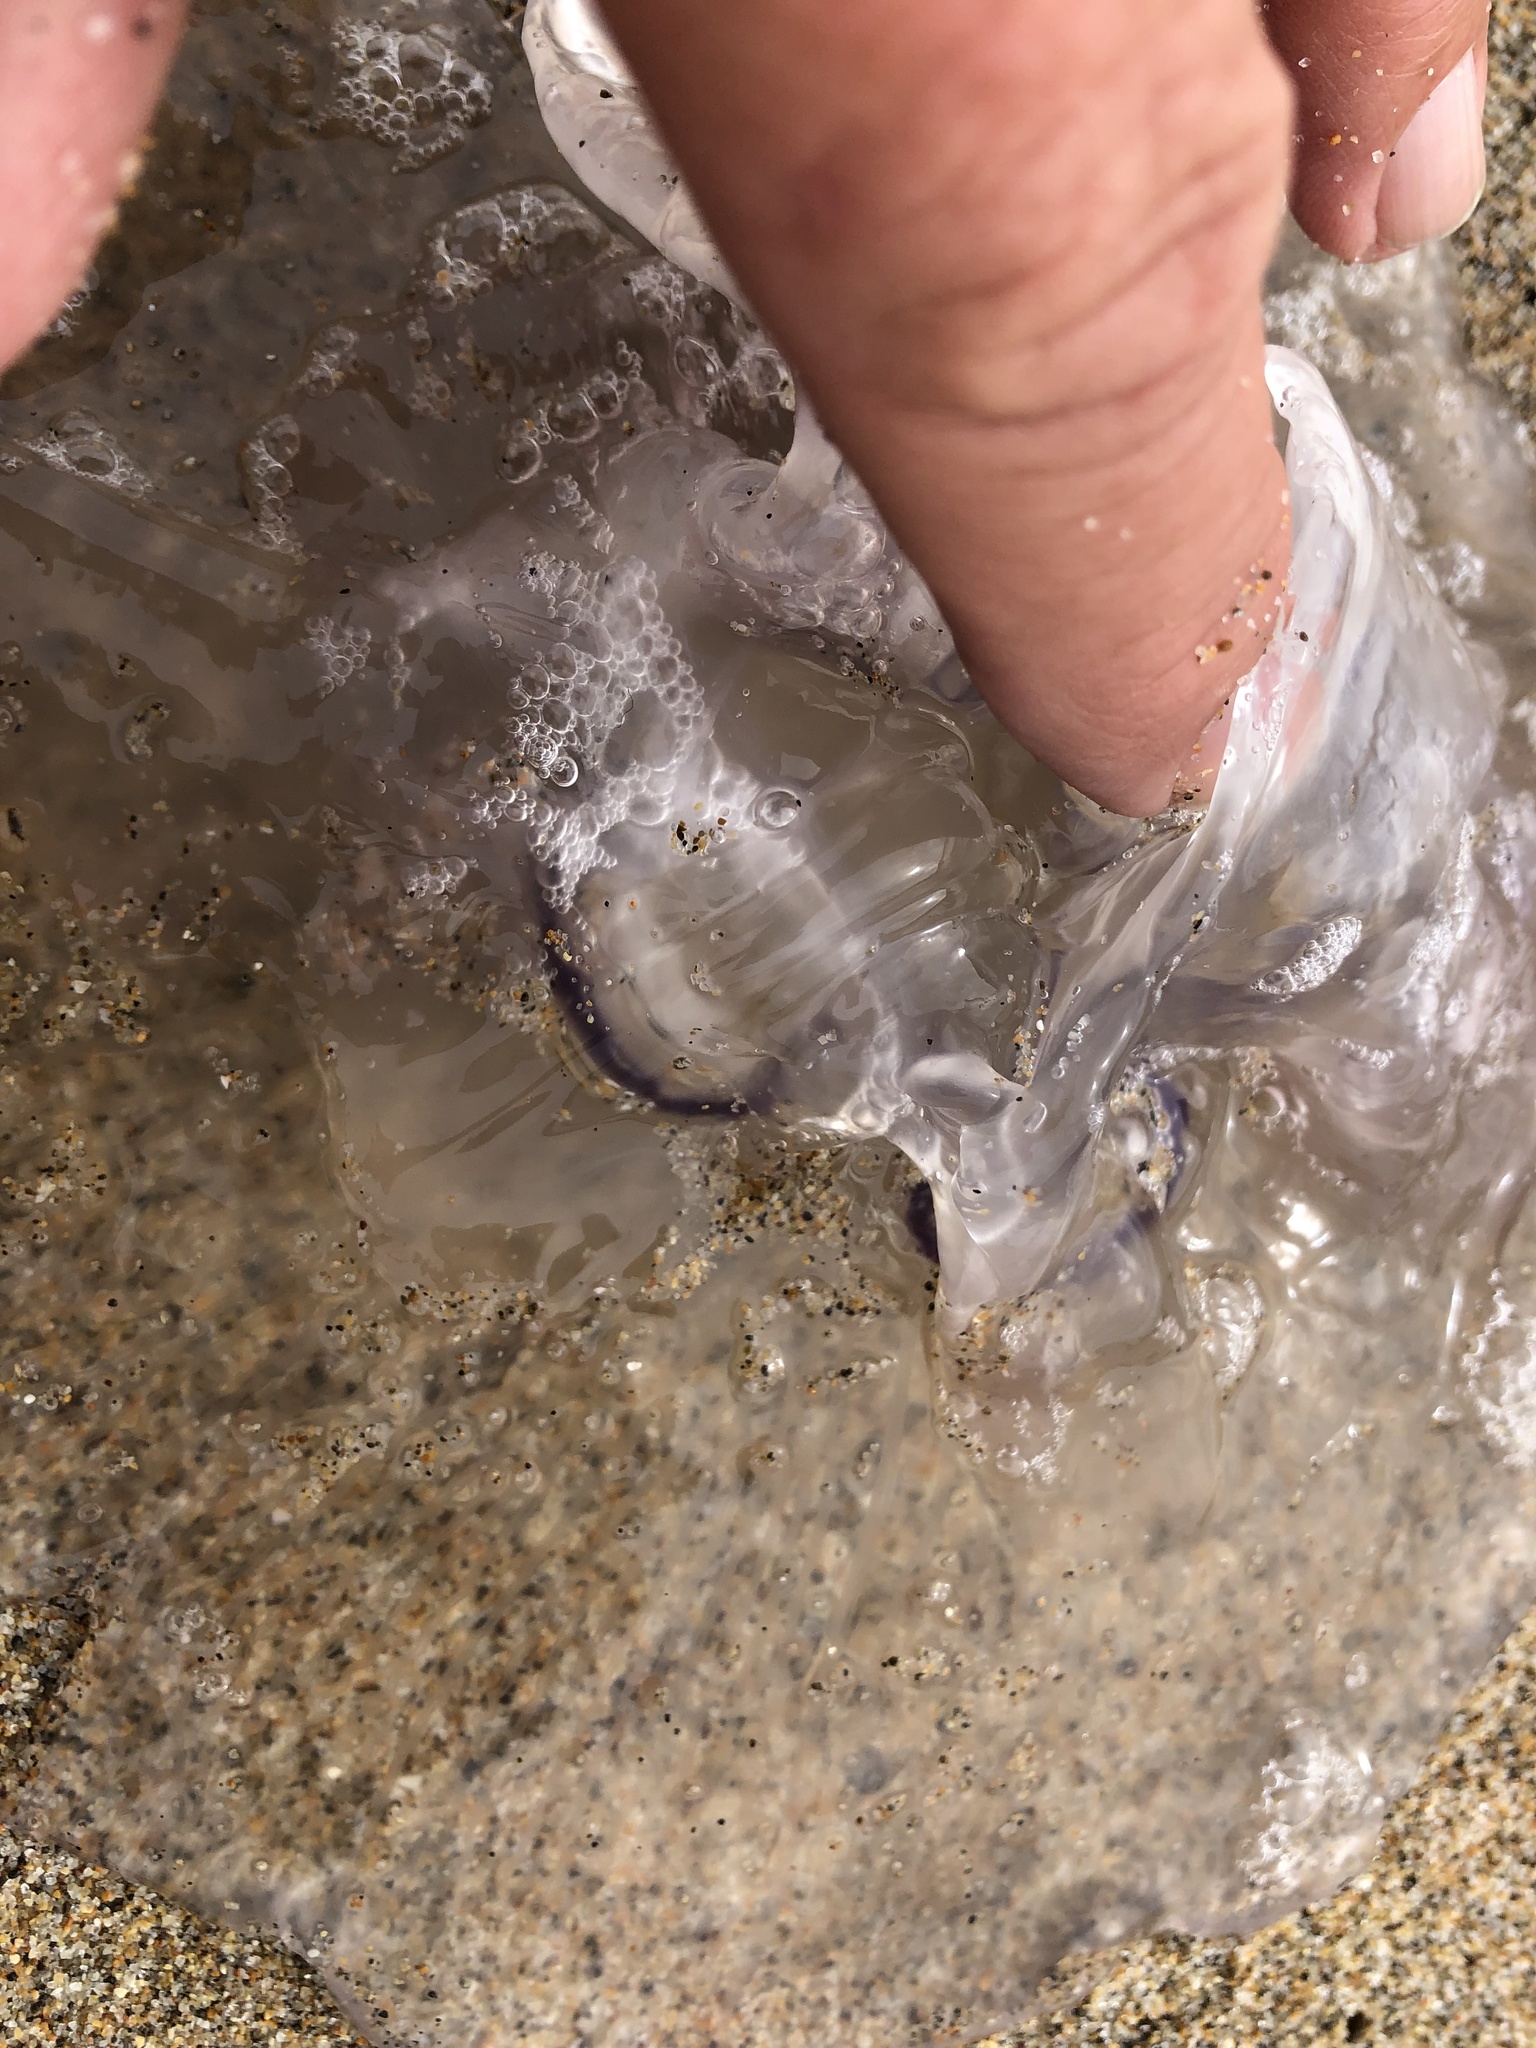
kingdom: Animalia
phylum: Cnidaria
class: Scyphozoa
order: Semaeostomeae
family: Ulmaridae
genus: Aurelia
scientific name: Aurelia labiata
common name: Pacific moon jelly
